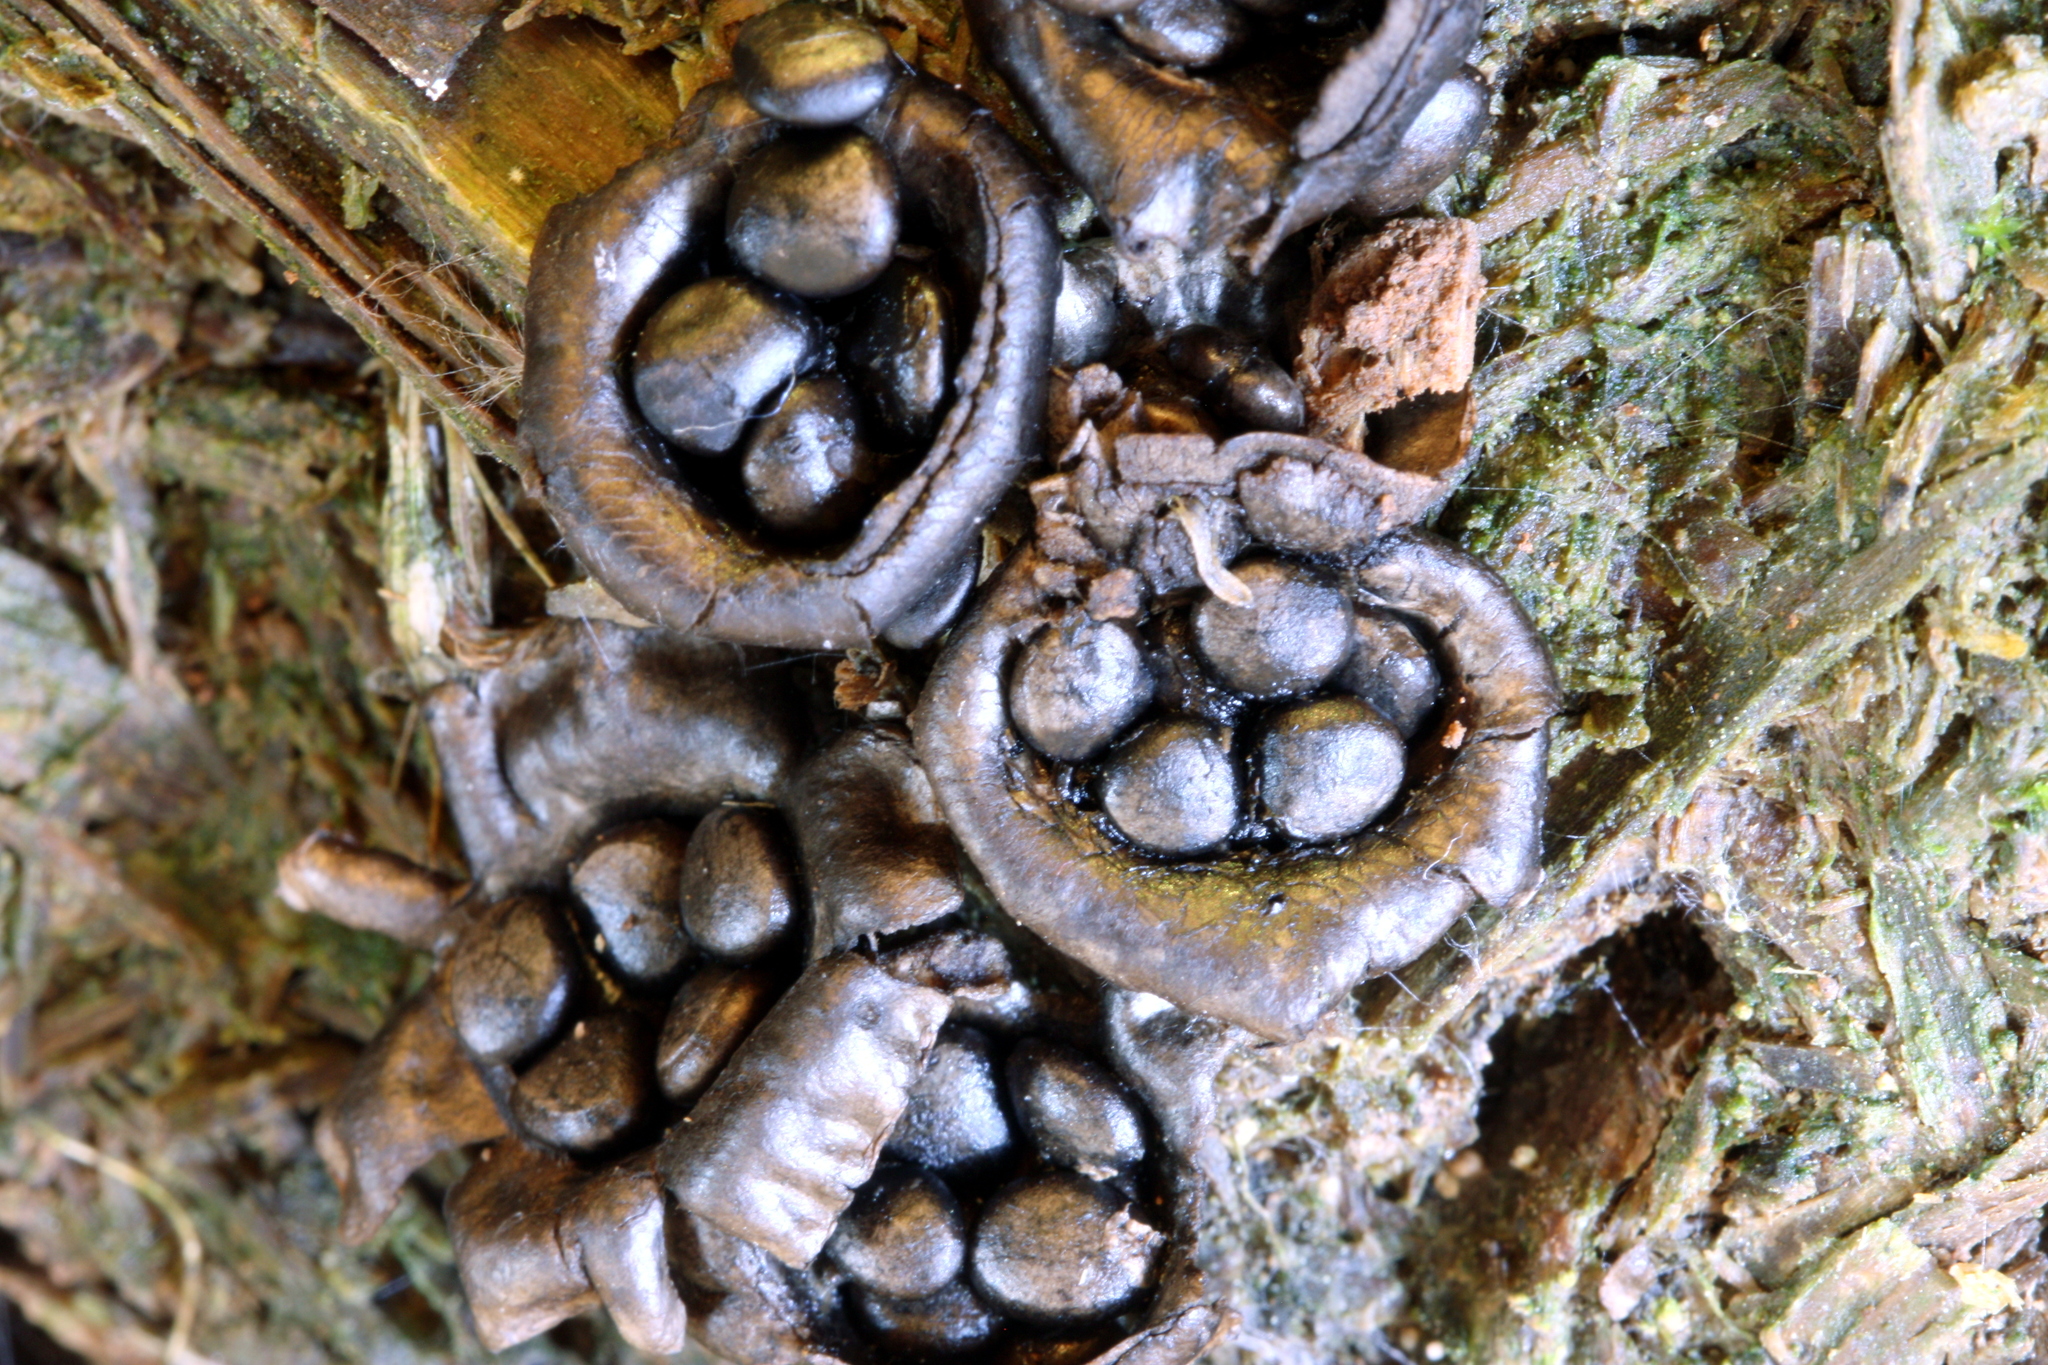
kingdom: Fungi
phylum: Basidiomycota
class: Agaricomycetes
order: Agaricales
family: Agaricaceae
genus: Cyathus
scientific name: Cyathus olla
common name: Field bird's nest
